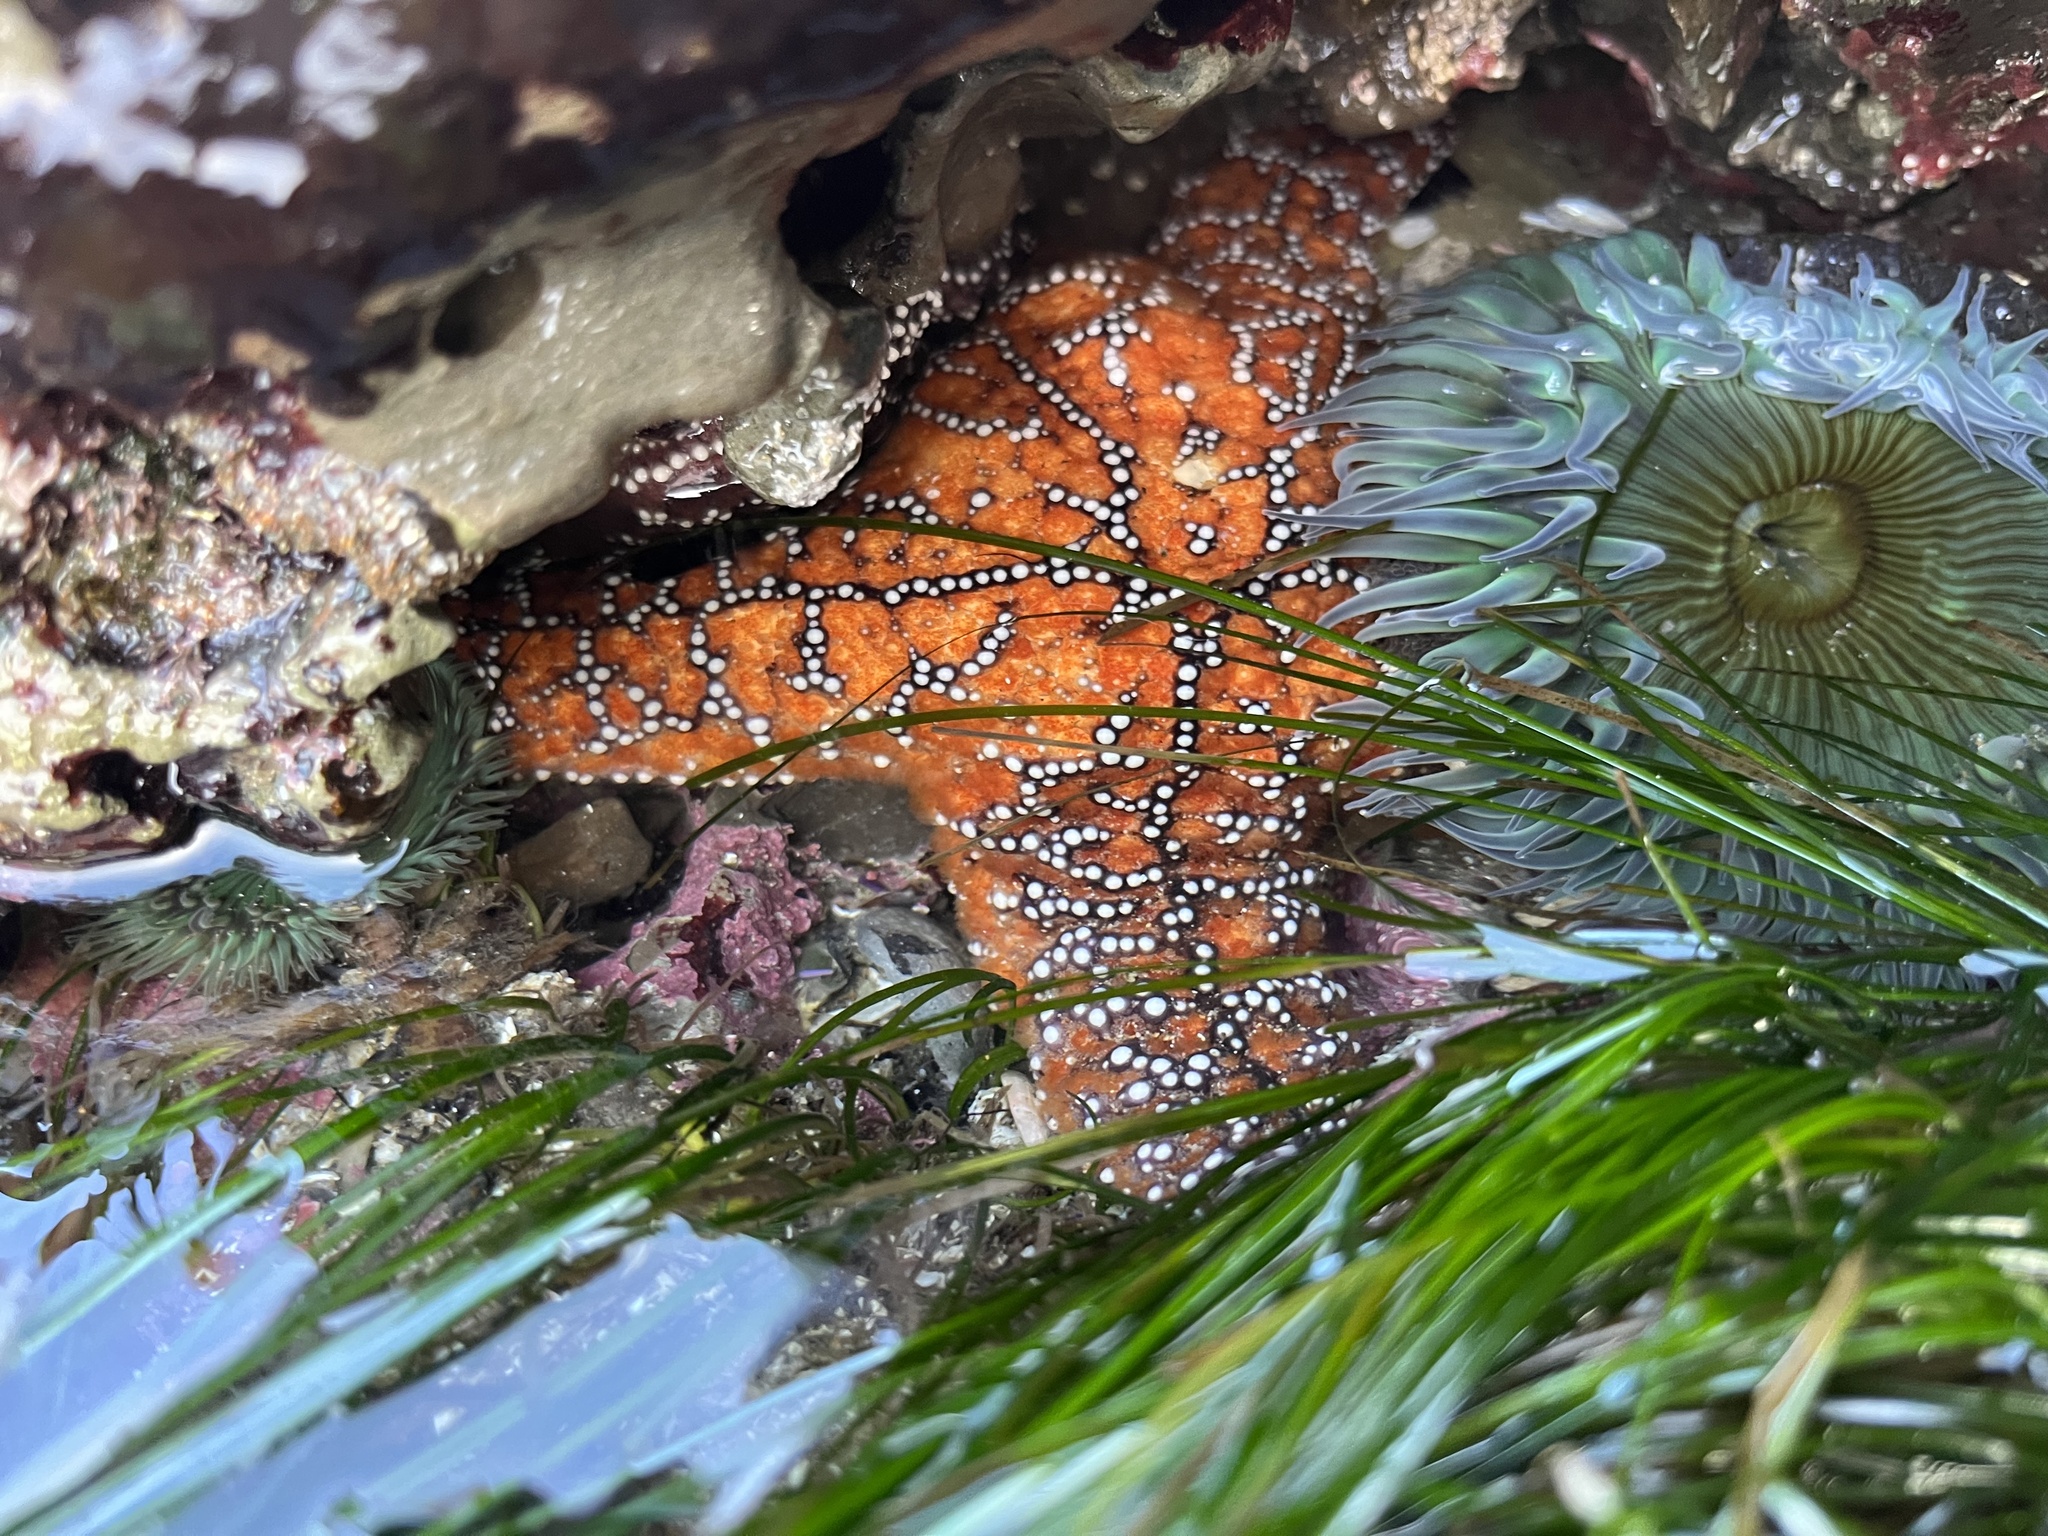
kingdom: Animalia
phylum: Echinodermata
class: Asteroidea
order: Forcipulatida
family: Asteriidae
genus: Pisaster
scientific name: Pisaster ochraceus
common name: Ochre stars
